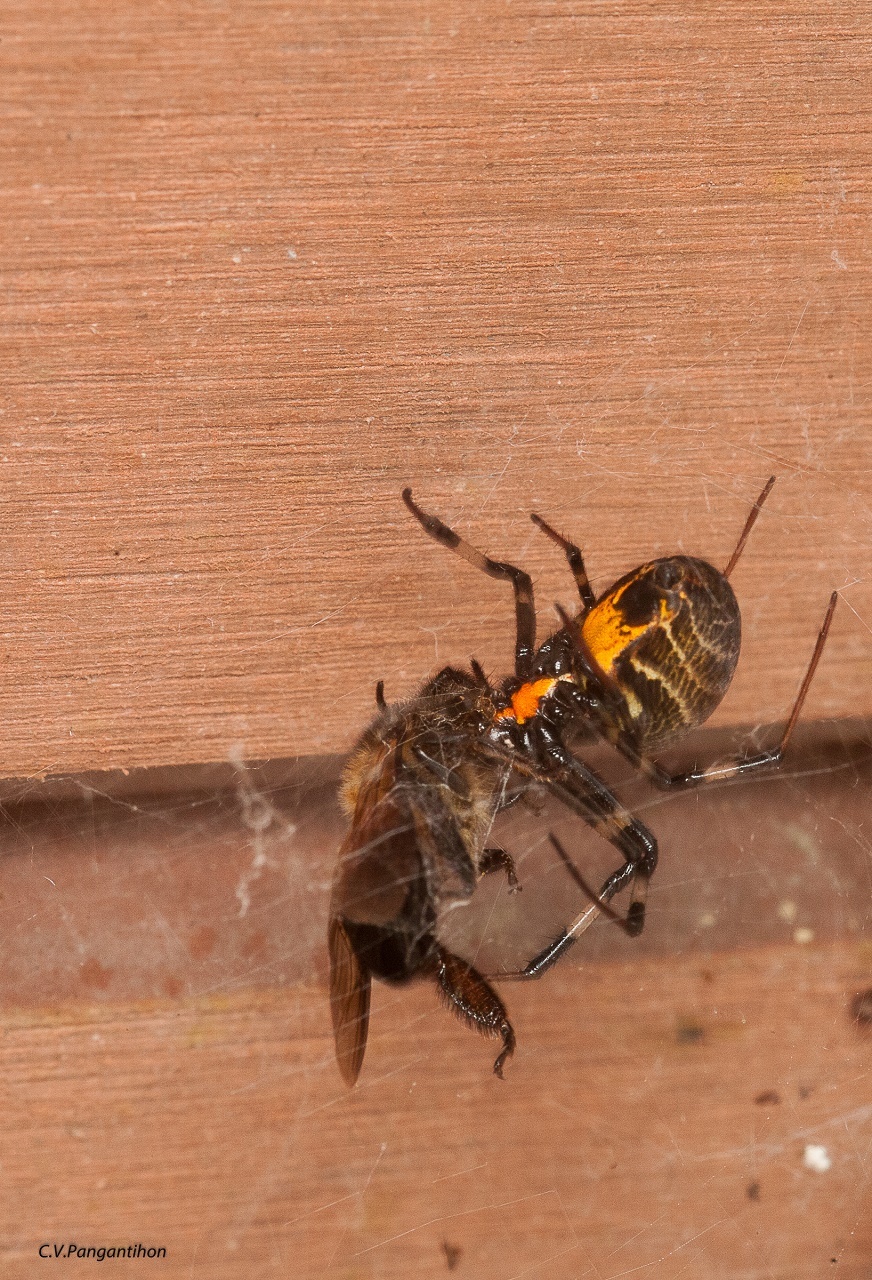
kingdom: Animalia
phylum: Arthropoda
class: Arachnida
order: Araneae
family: Araneidae
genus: Nephilengys
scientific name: Nephilengys malabarensis
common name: Asian hermit spider
